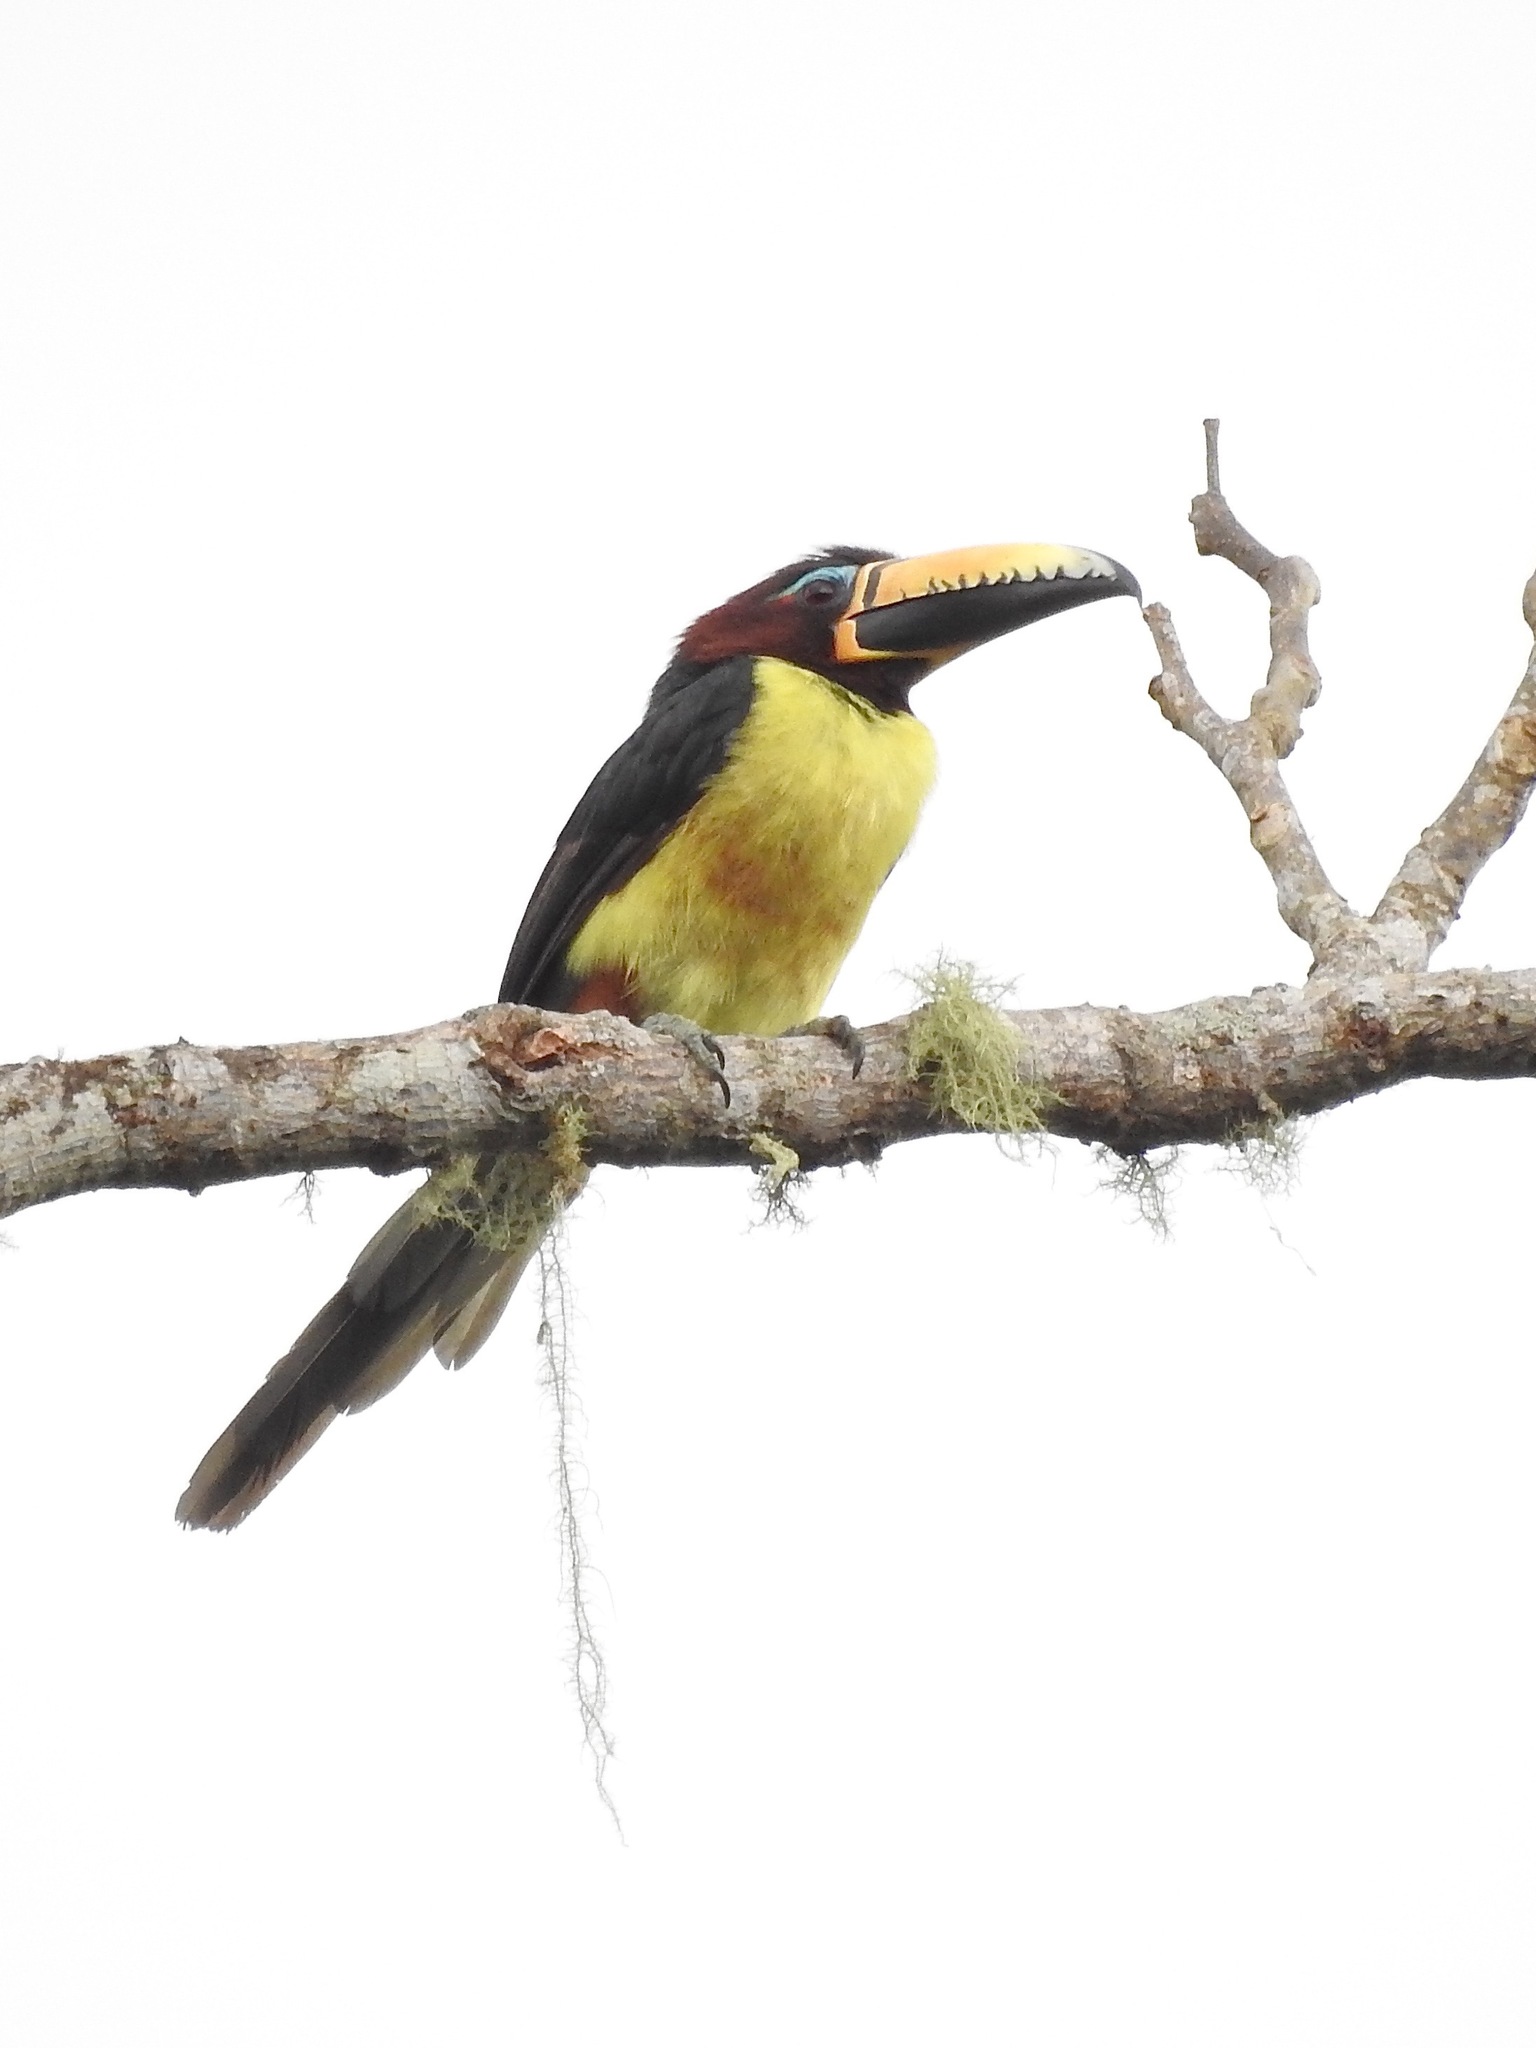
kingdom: Animalia
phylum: Chordata
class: Aves
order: Piciformes
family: Ramphastidae
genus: Pteroglossus
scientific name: Pteroglossus inscriptus
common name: Lettered aracari
